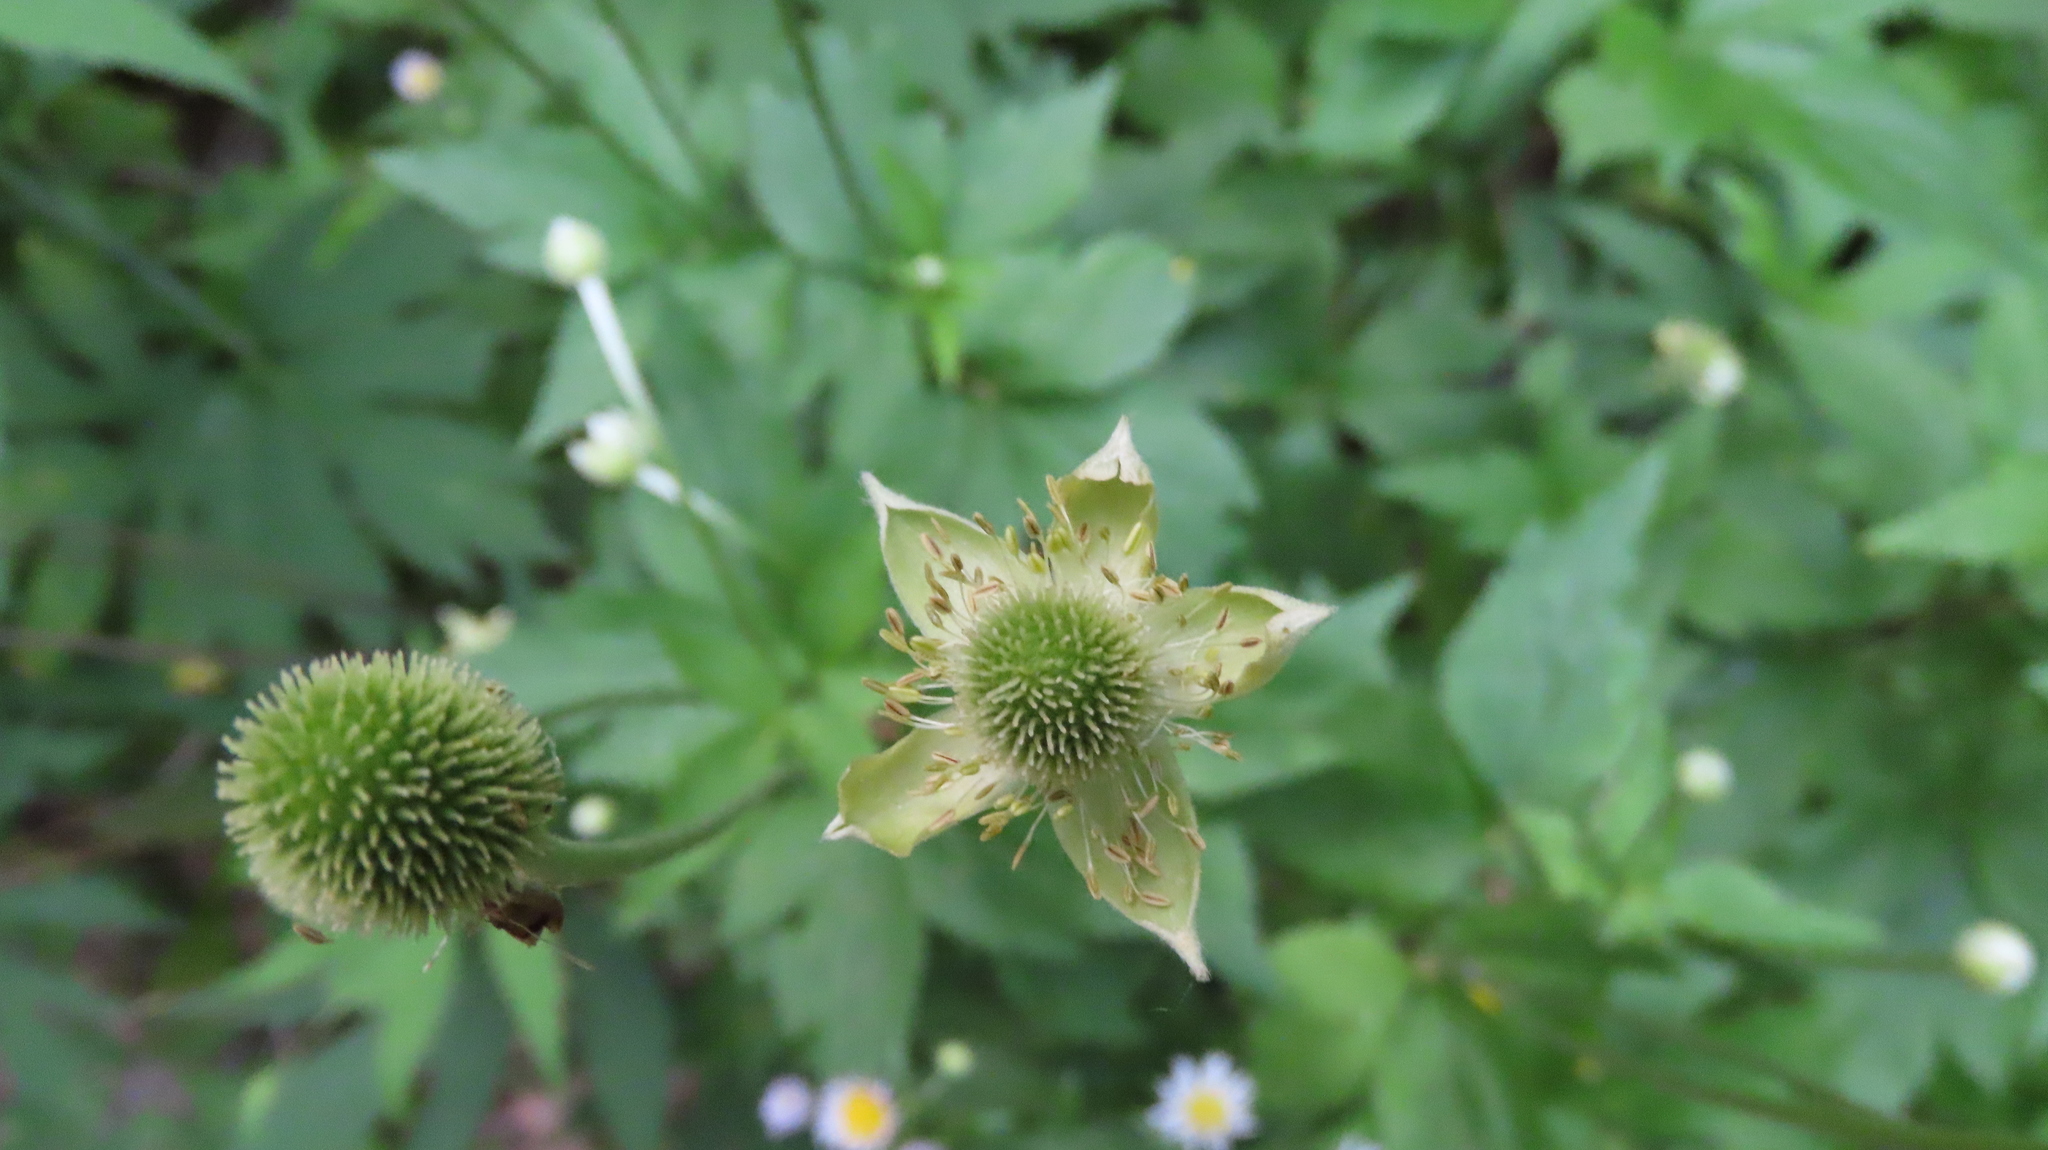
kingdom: Plantae
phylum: Tracheophyta
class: Magnoliopsida
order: Ranunculales
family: Ranunculaceae
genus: Anemone
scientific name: Anemone virginiana
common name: Tall anemone
